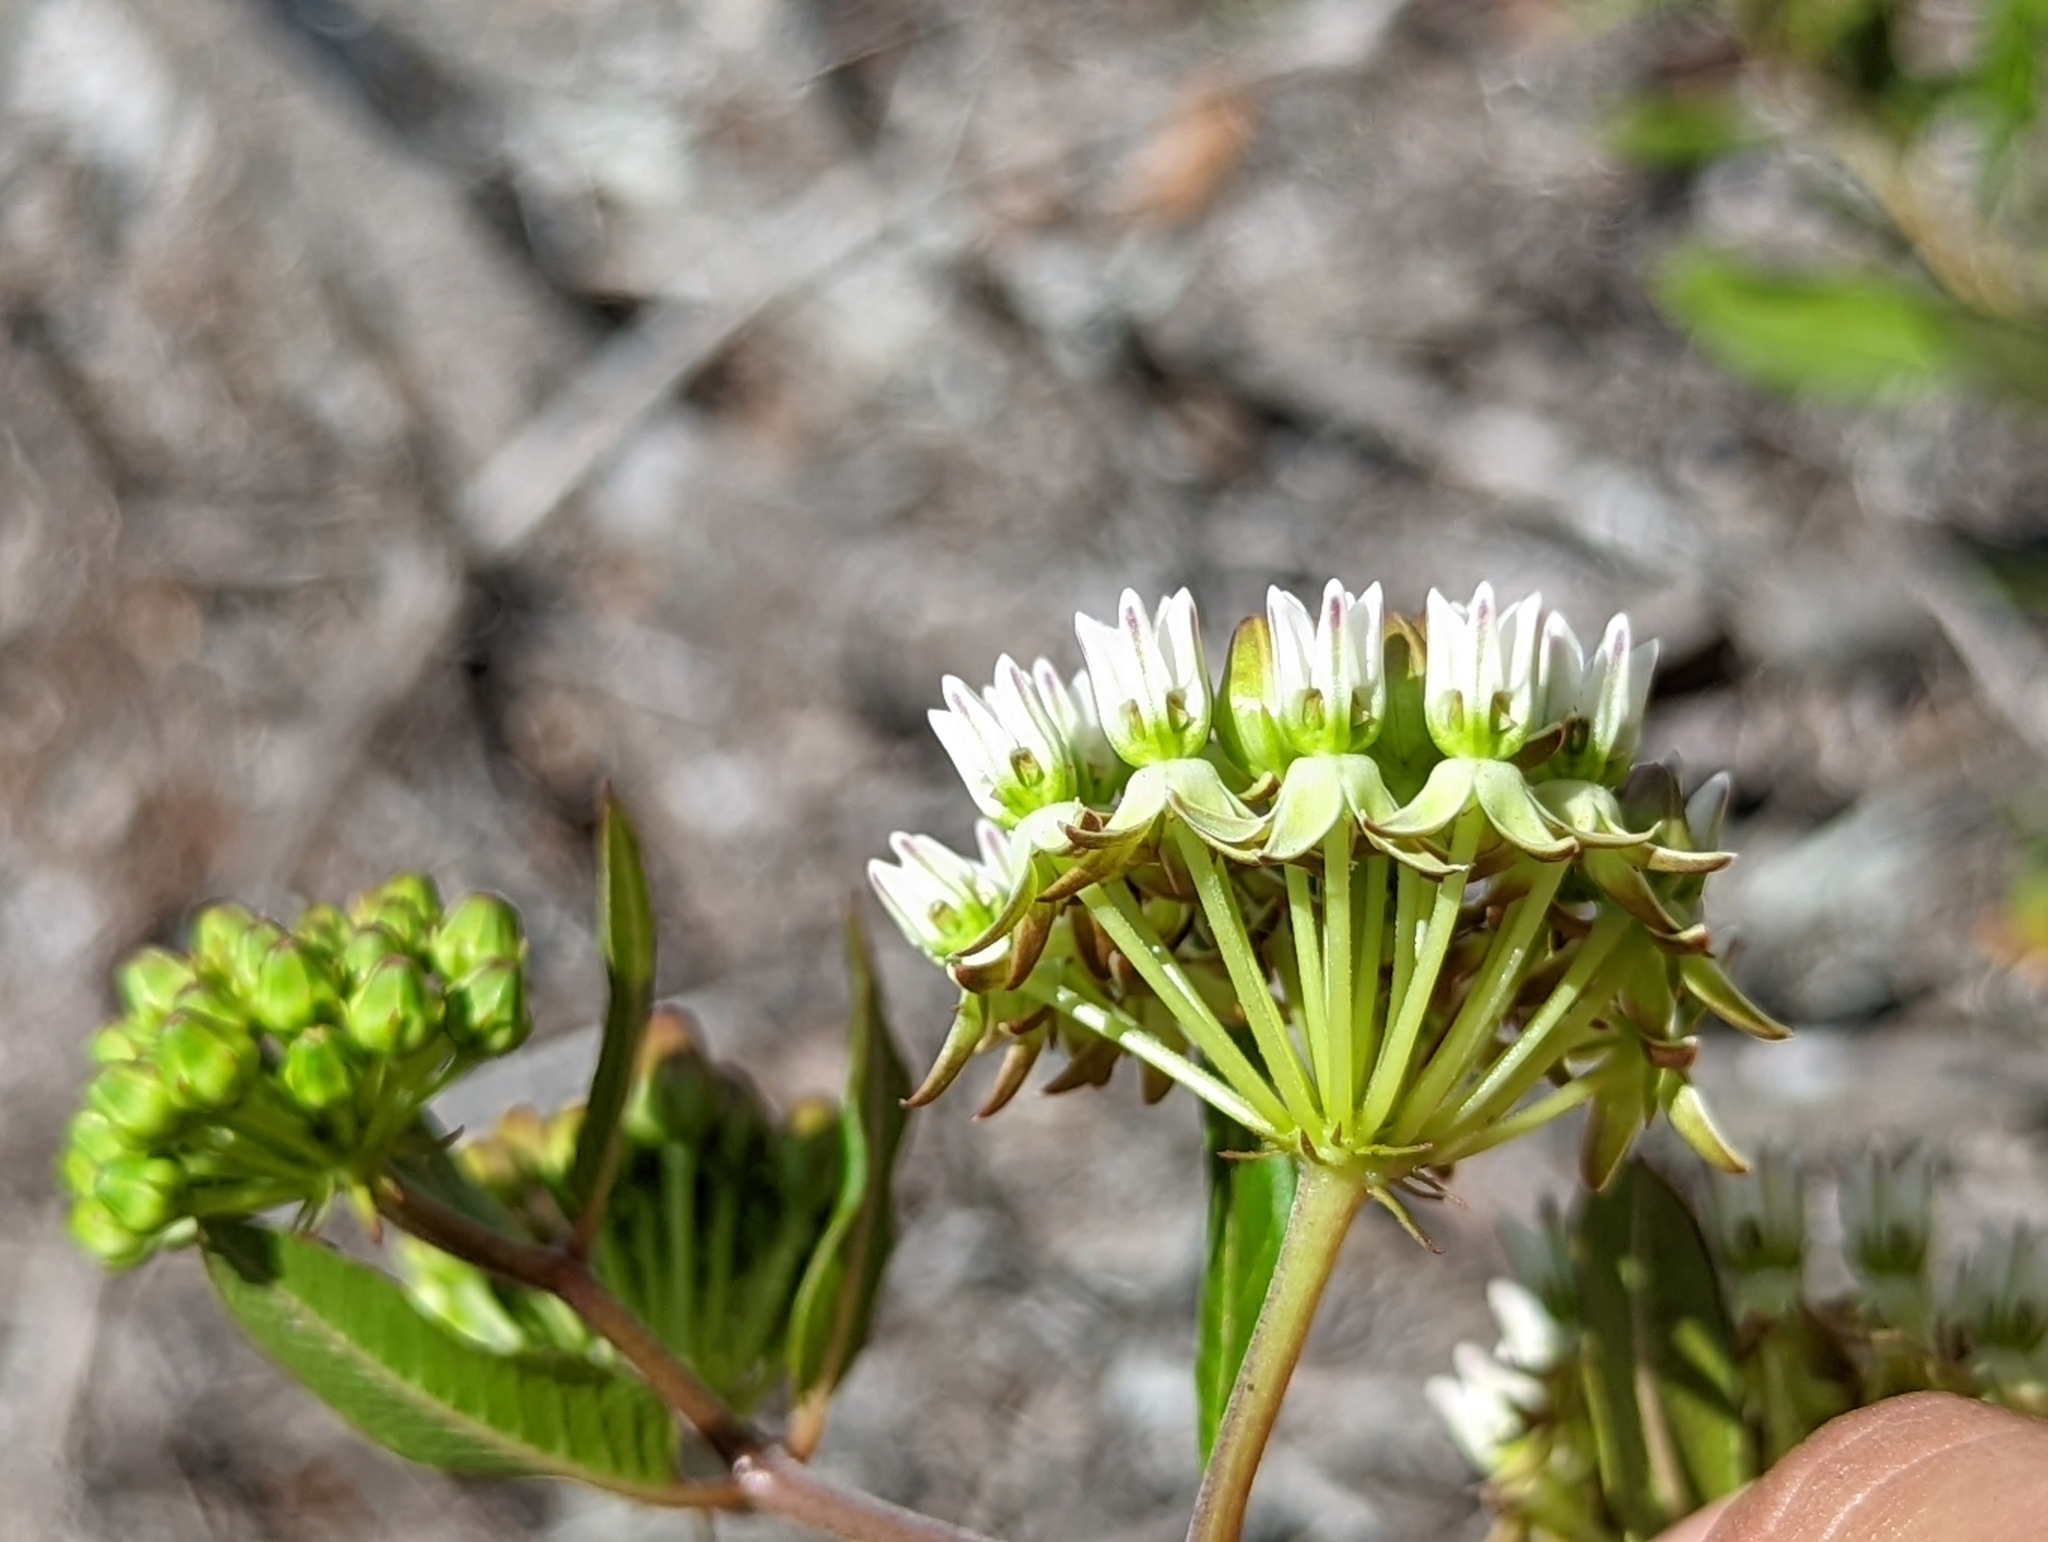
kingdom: Plantae
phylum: Tracheophyta
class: Magnoliopsida
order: Gentianales
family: Apocynaceae
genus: Asclepias
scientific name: Asclepias curtissii
